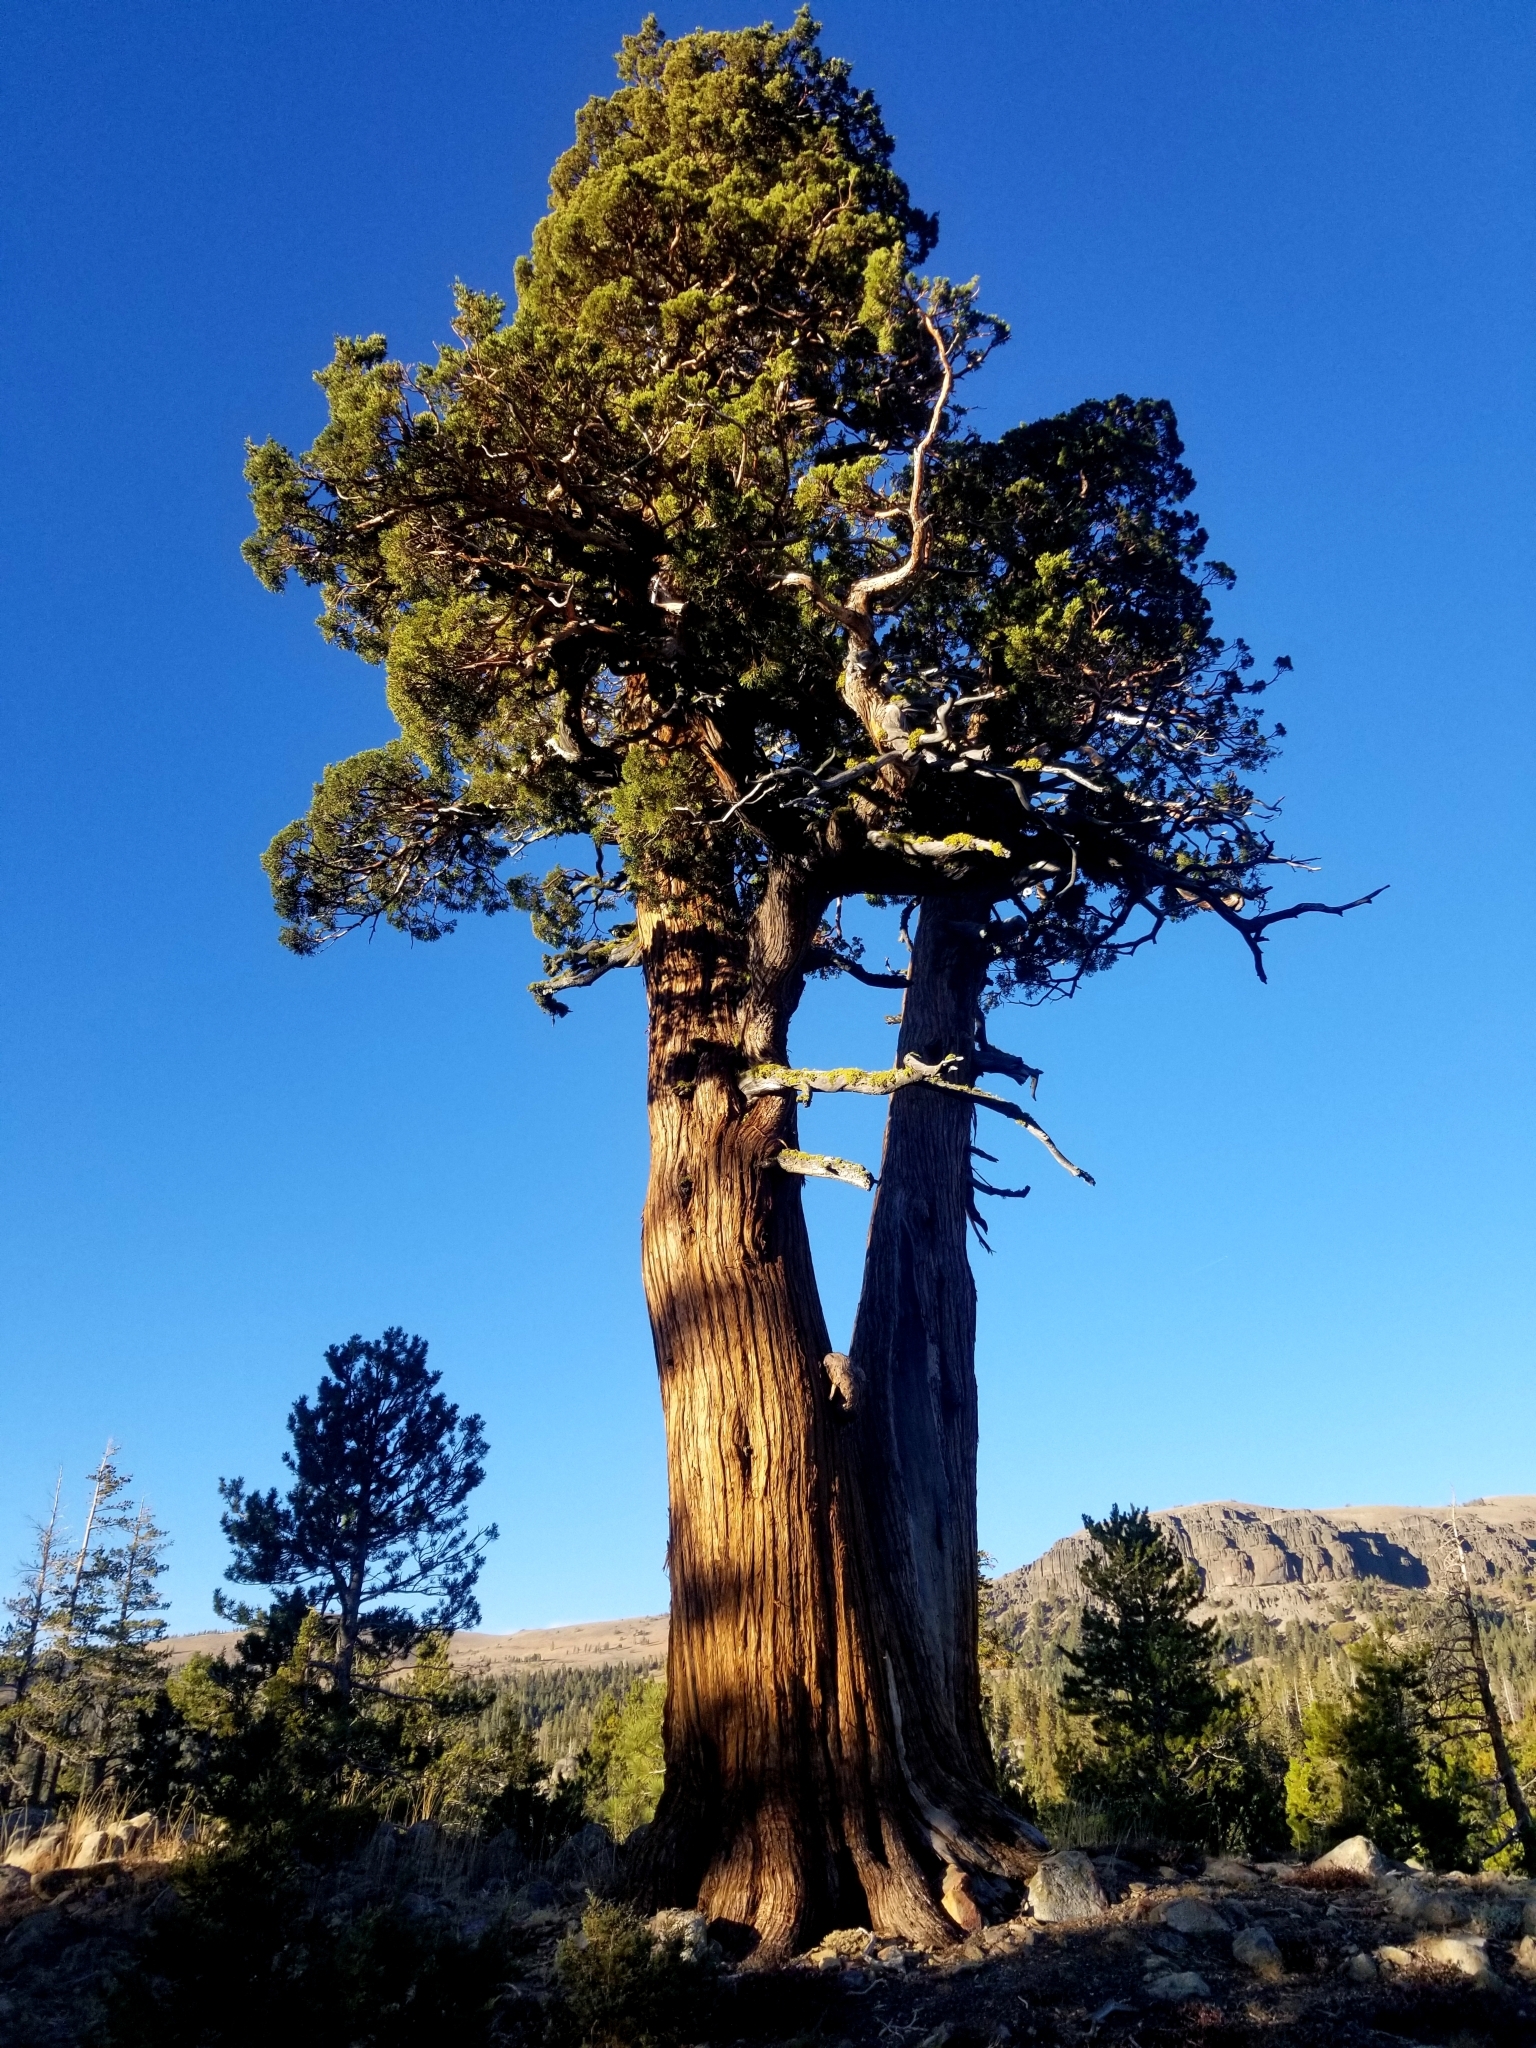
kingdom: Plantae
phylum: Tracheophyta
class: Pinopsida
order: Pinales
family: Cupressaceae
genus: Juniperus
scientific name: Juniperus occidentalis
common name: Western juniper
